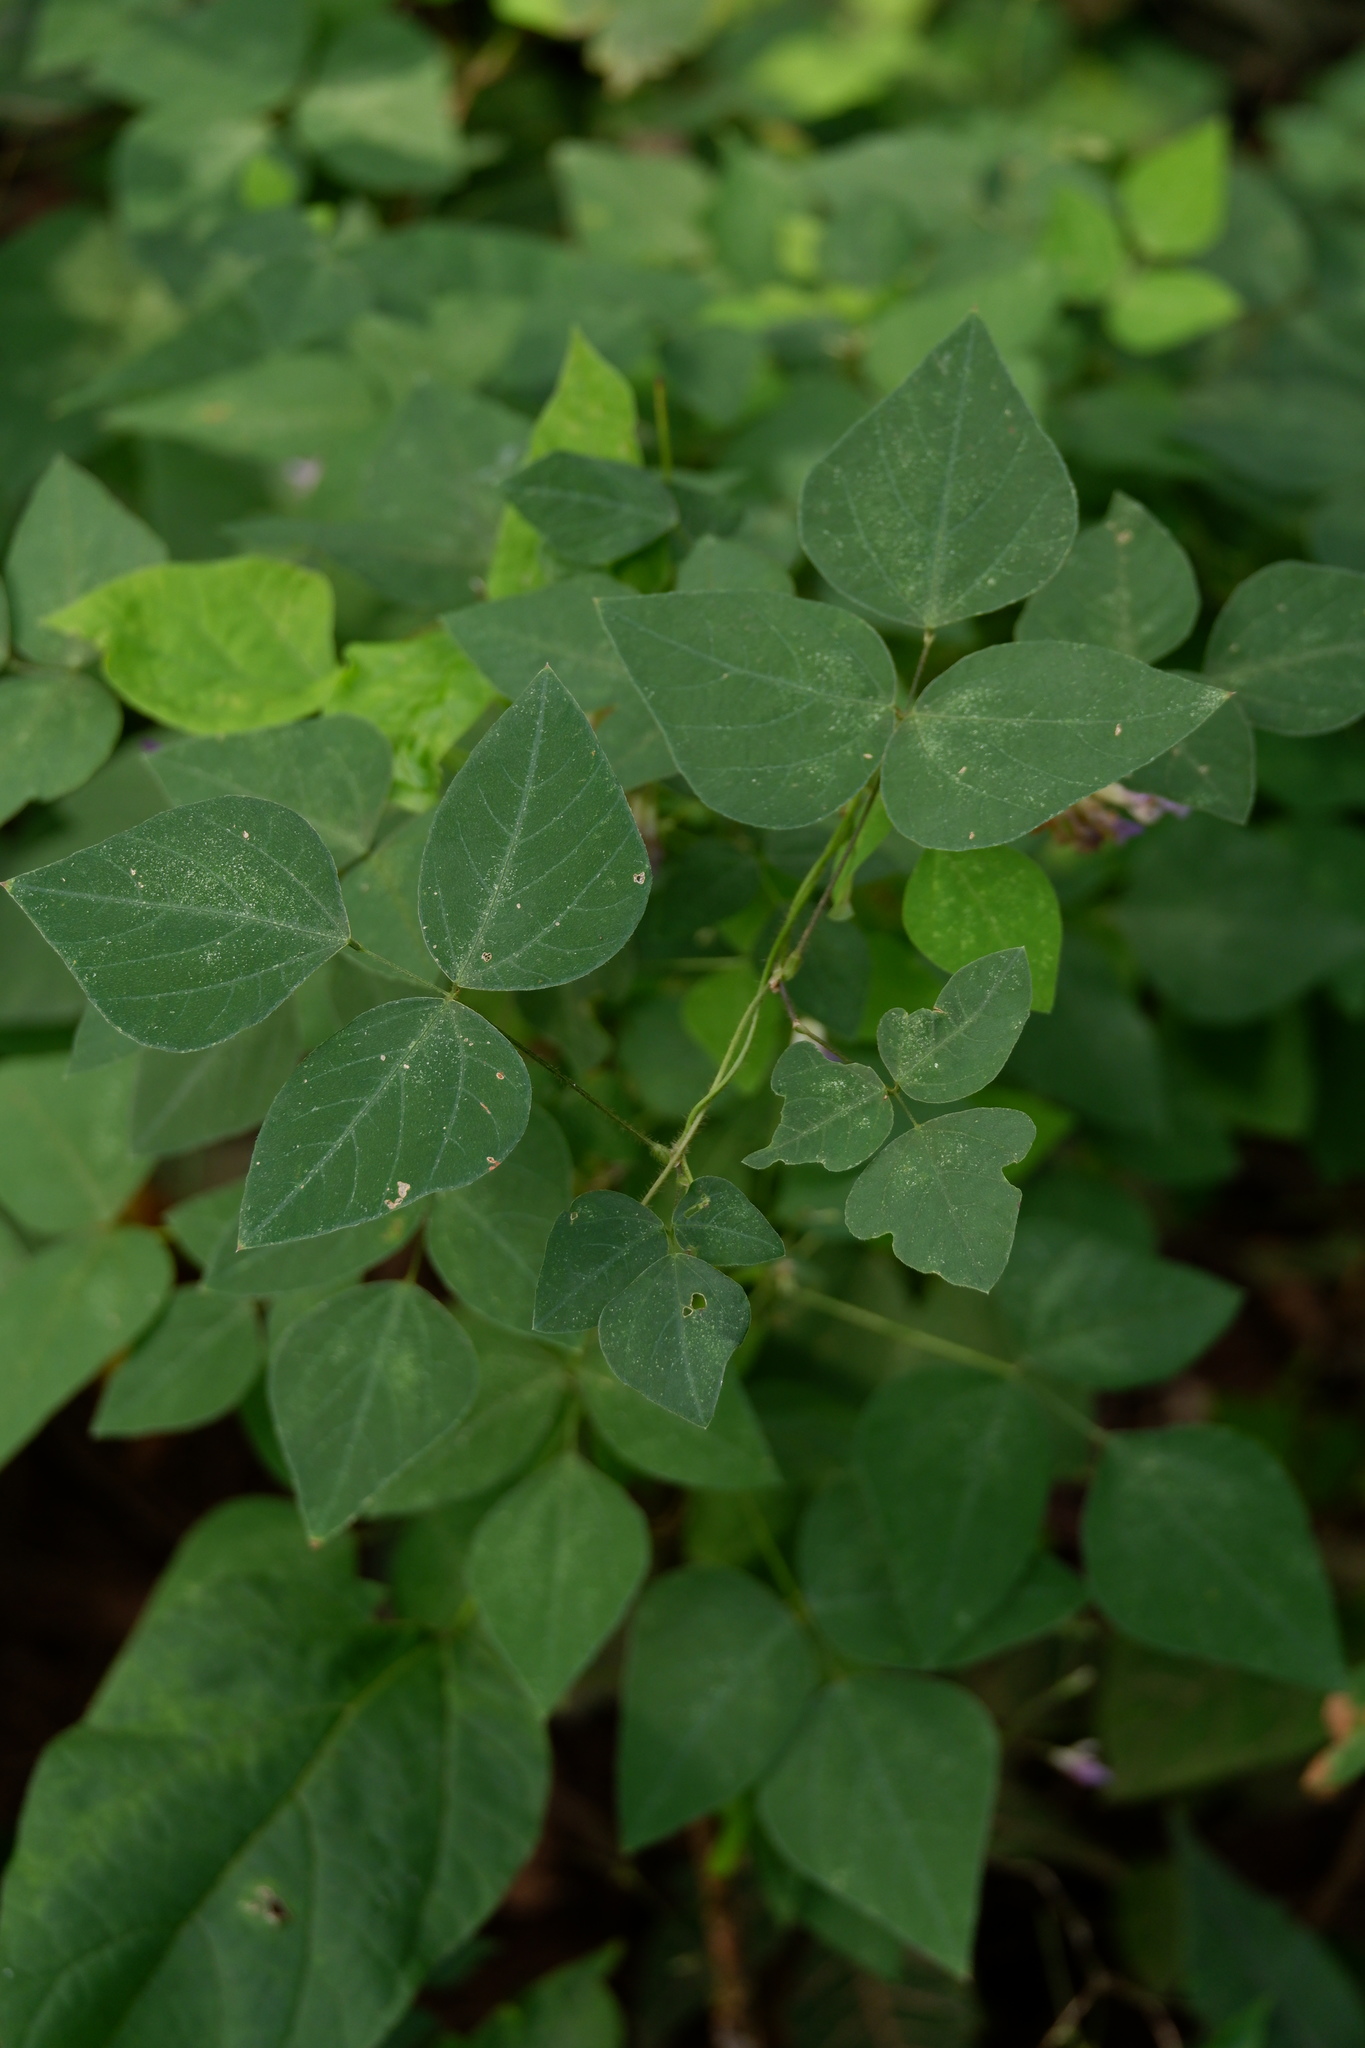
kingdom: Plantae
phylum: Tracheophyta
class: Magnoliopsida
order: Fabales
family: Fabaceae
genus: Amphicarpaea
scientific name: Amphicarpaea bracteata
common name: American hog peanut
